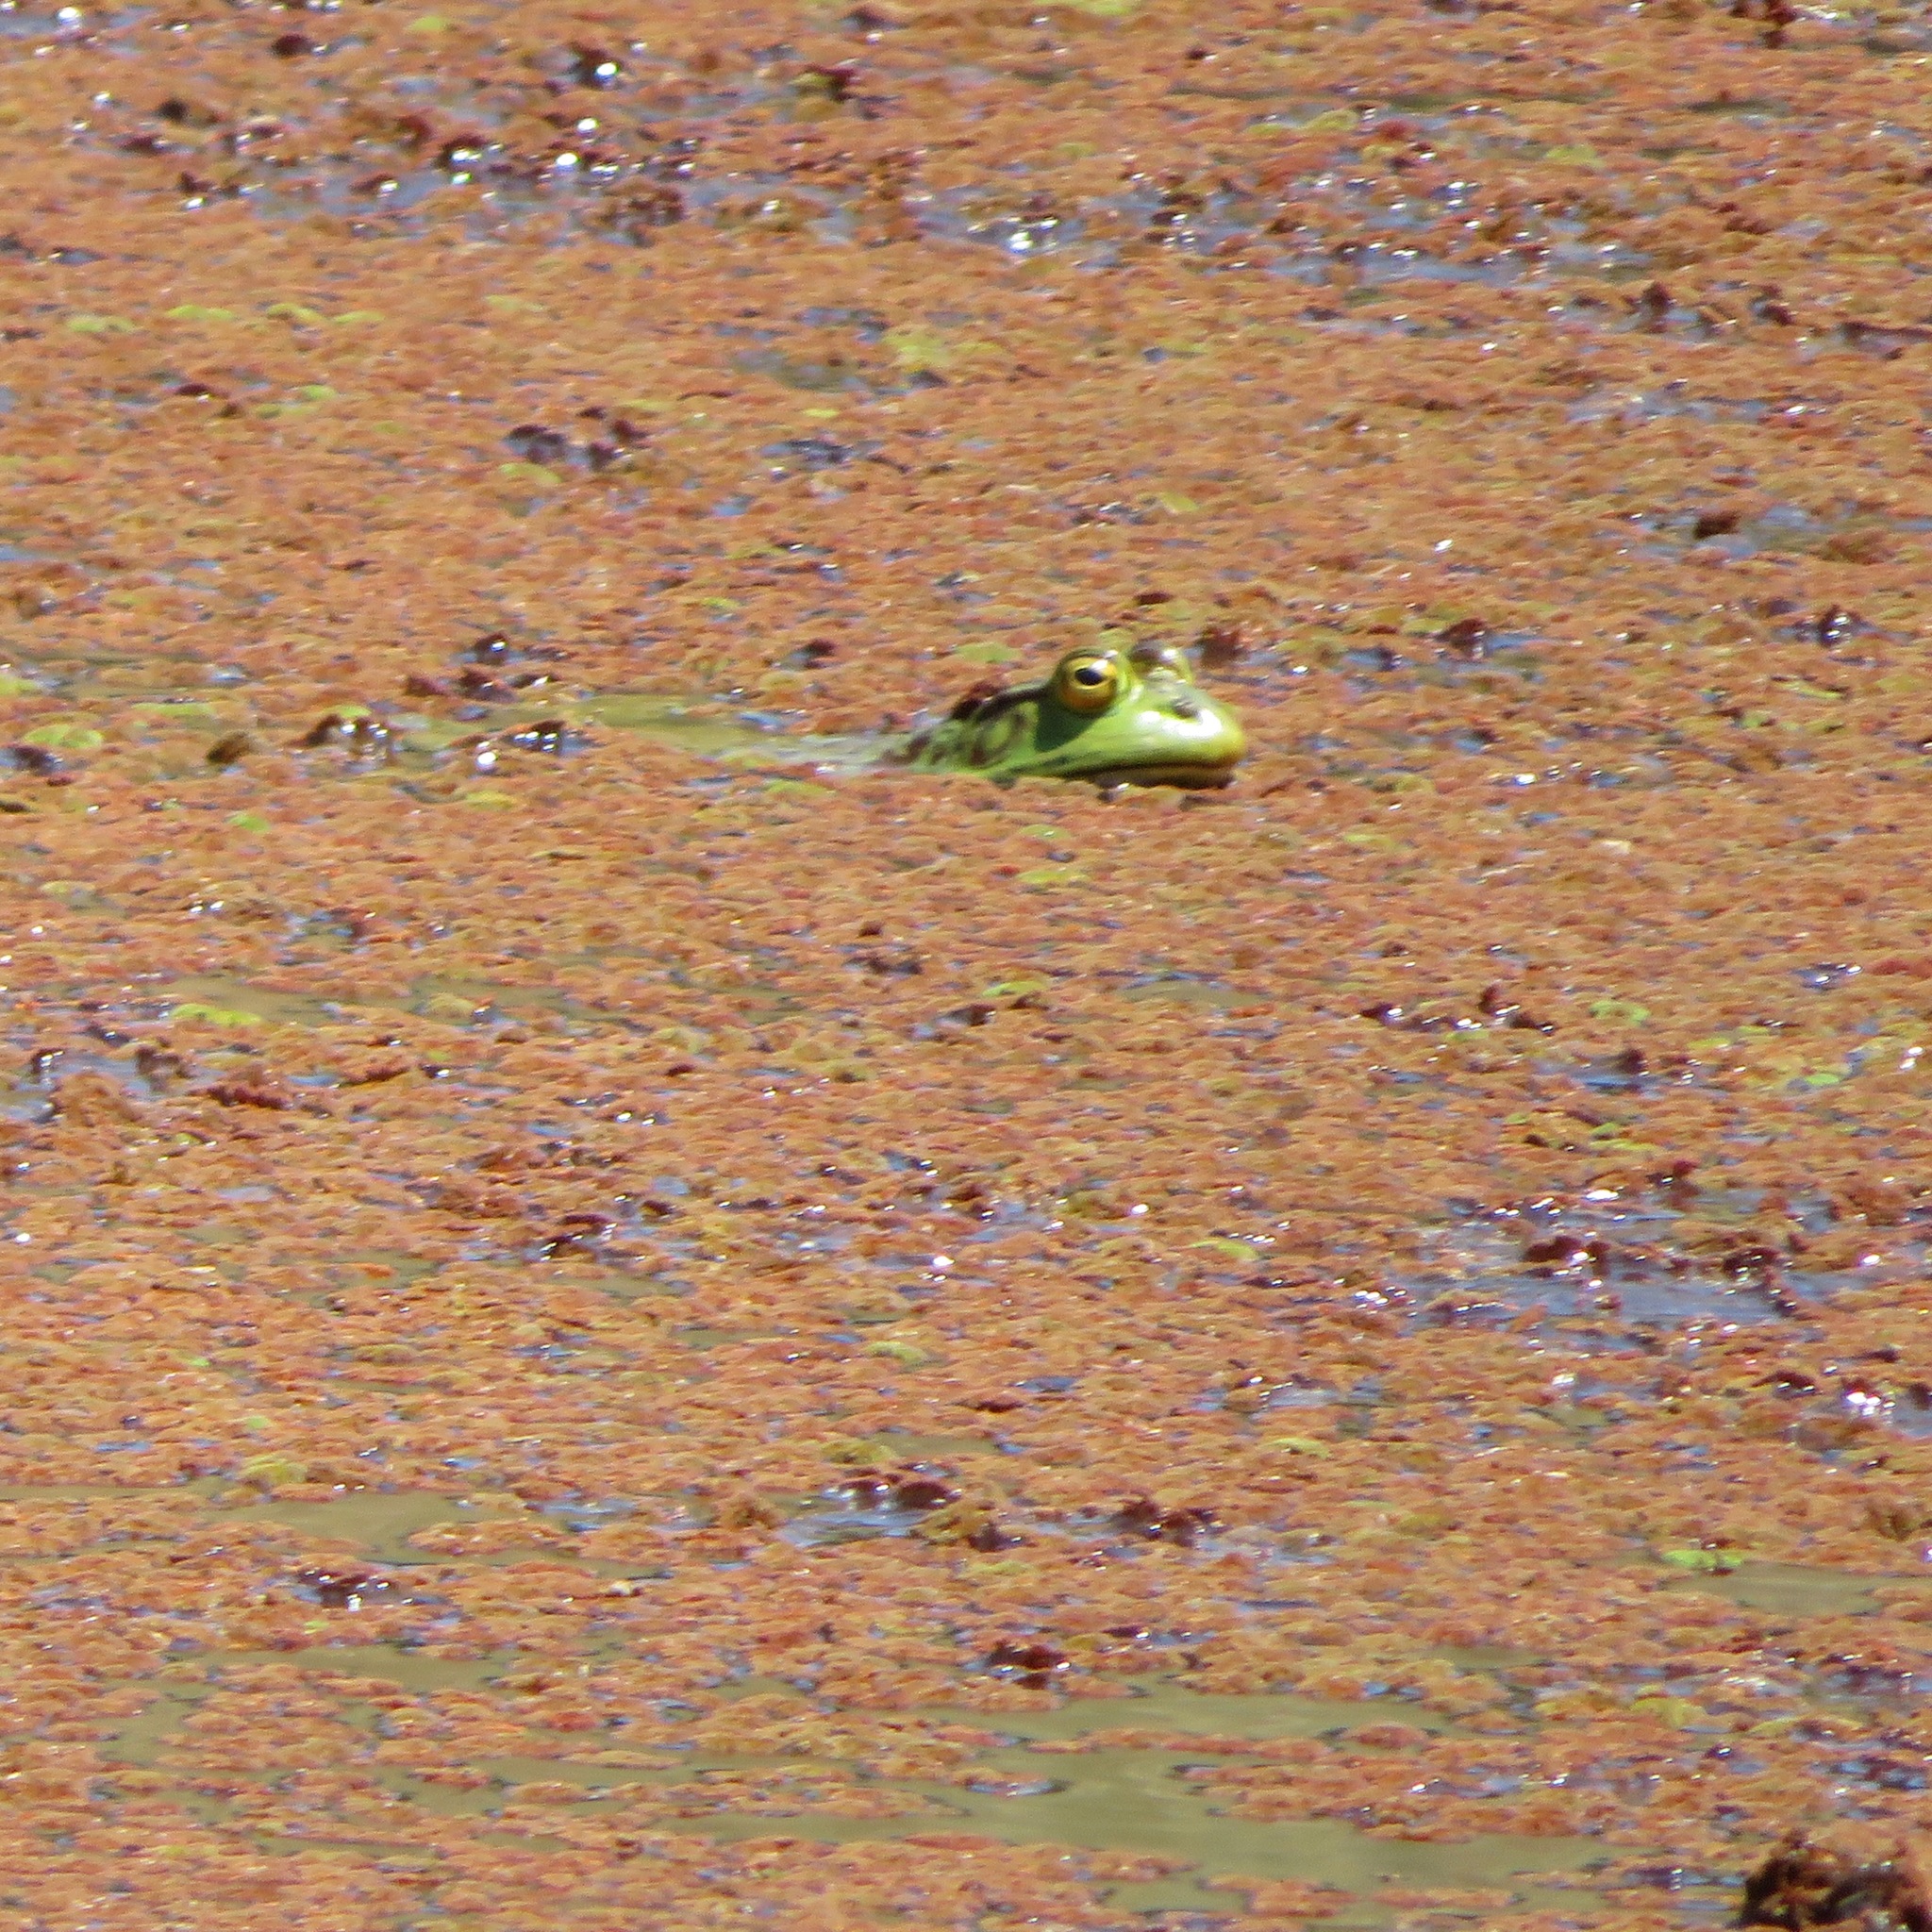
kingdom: Animalia
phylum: Chordata
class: Amphibia
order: Anura
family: Ranidae
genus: Lithobates
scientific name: Lithobates catesbeianus
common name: American bullfrog
